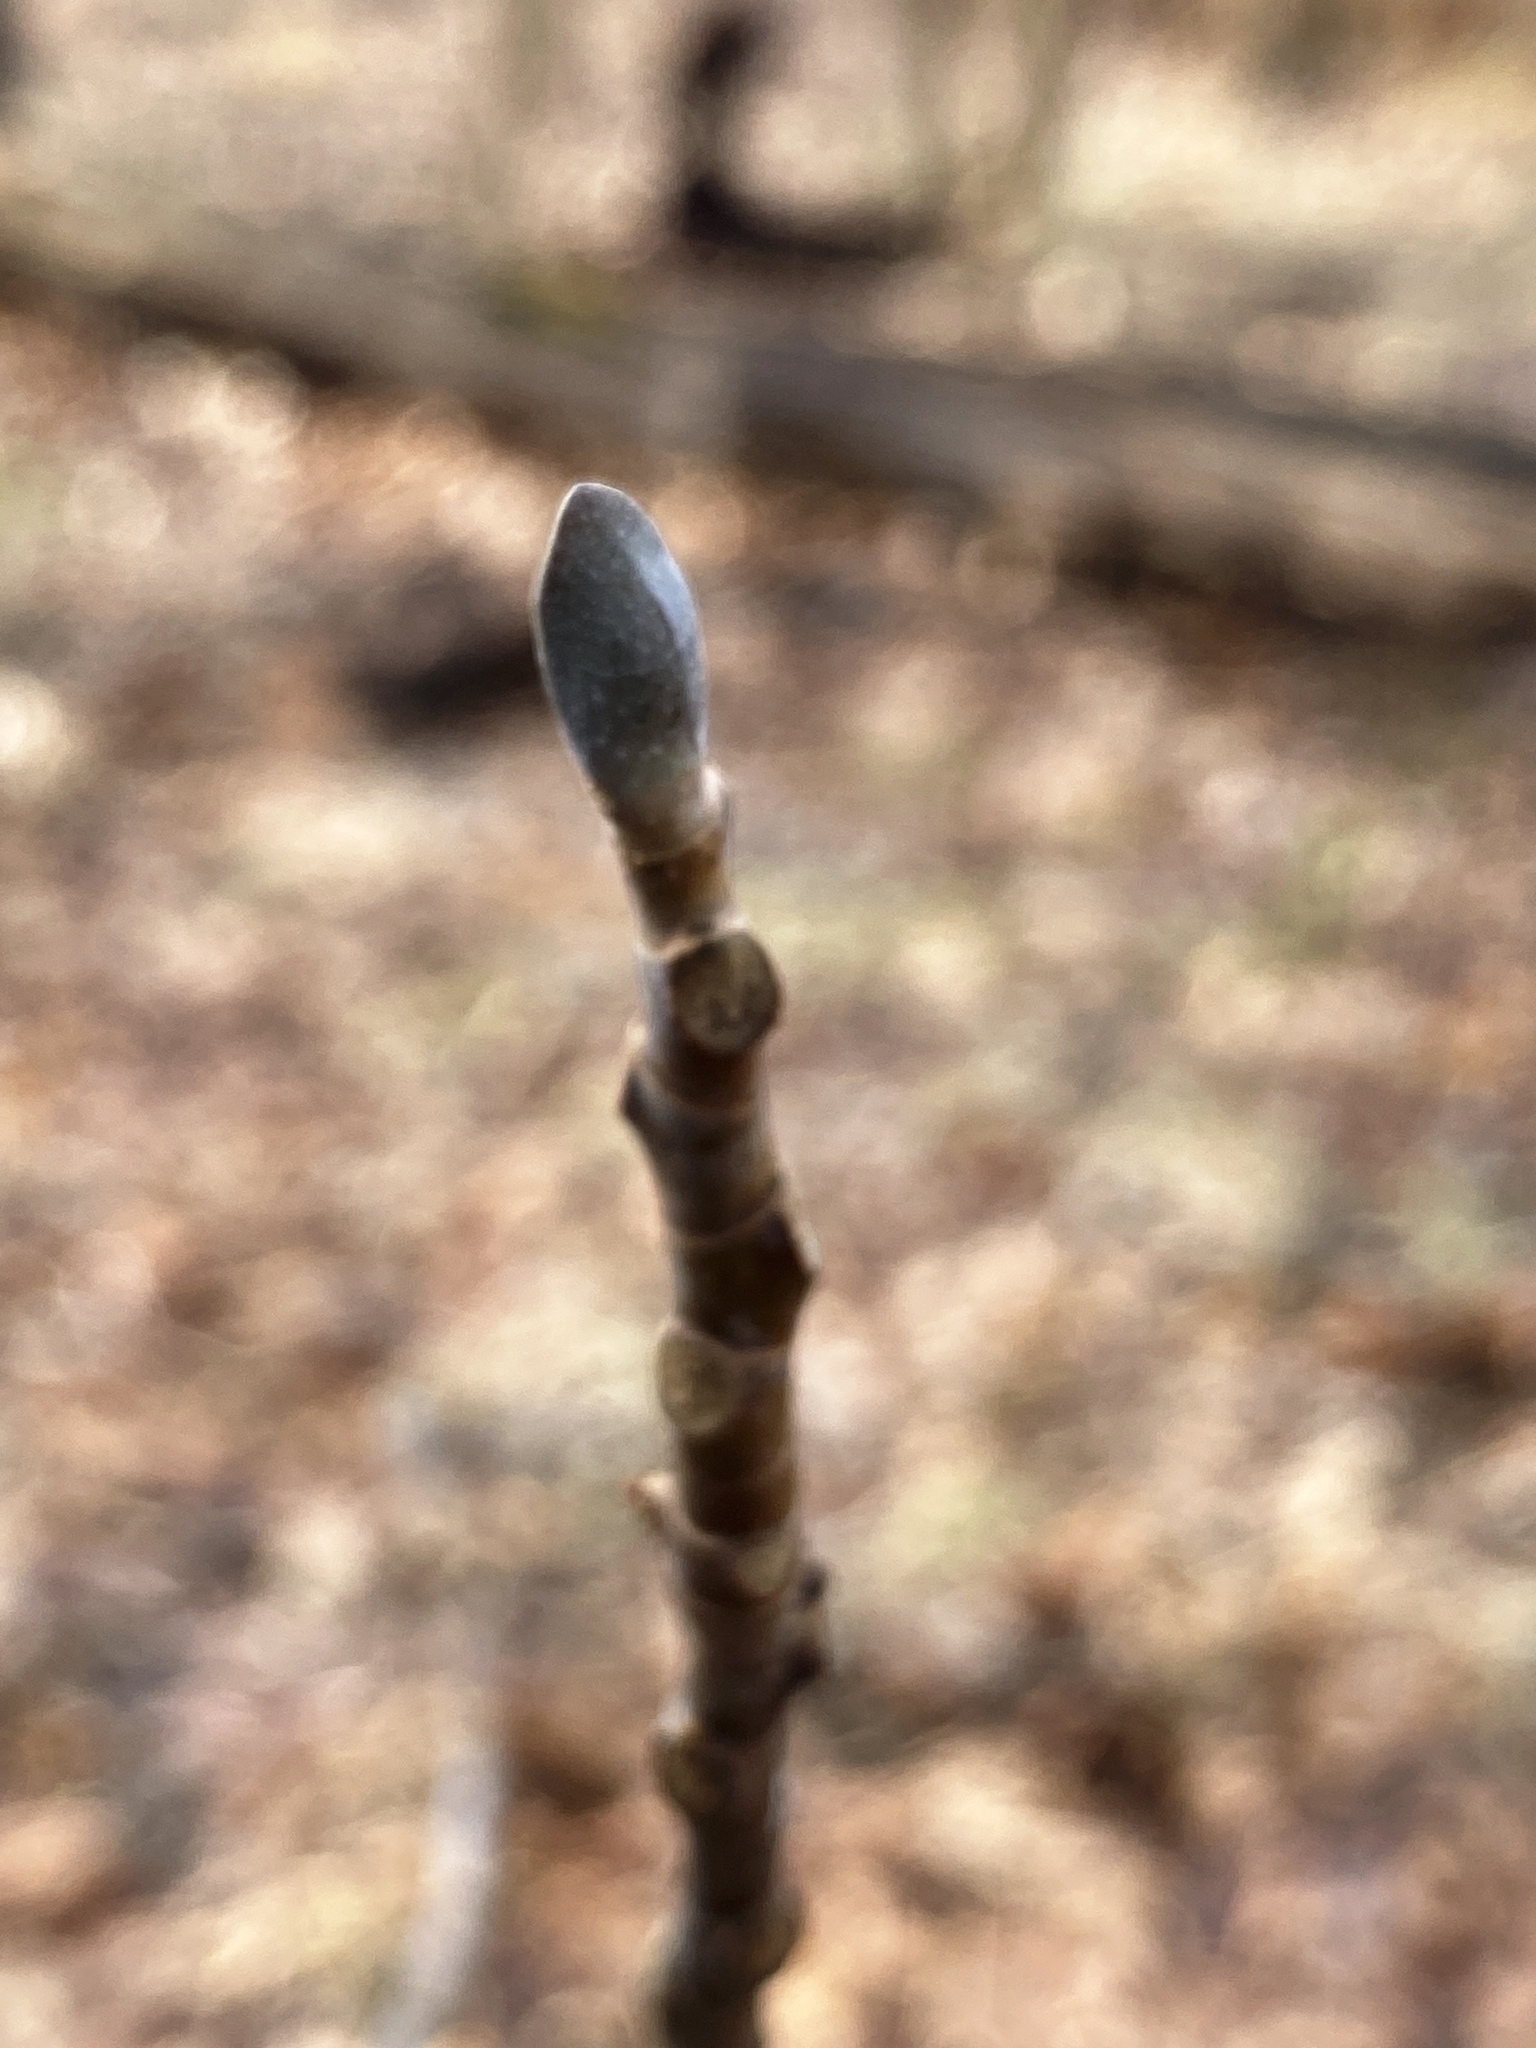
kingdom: Plantae
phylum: Tracheophyta
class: Magnoliopsida
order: Magnoliales
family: Magnoliaceae
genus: Liriodendron
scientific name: Liriodendron tulipifera
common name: Tulip tree
